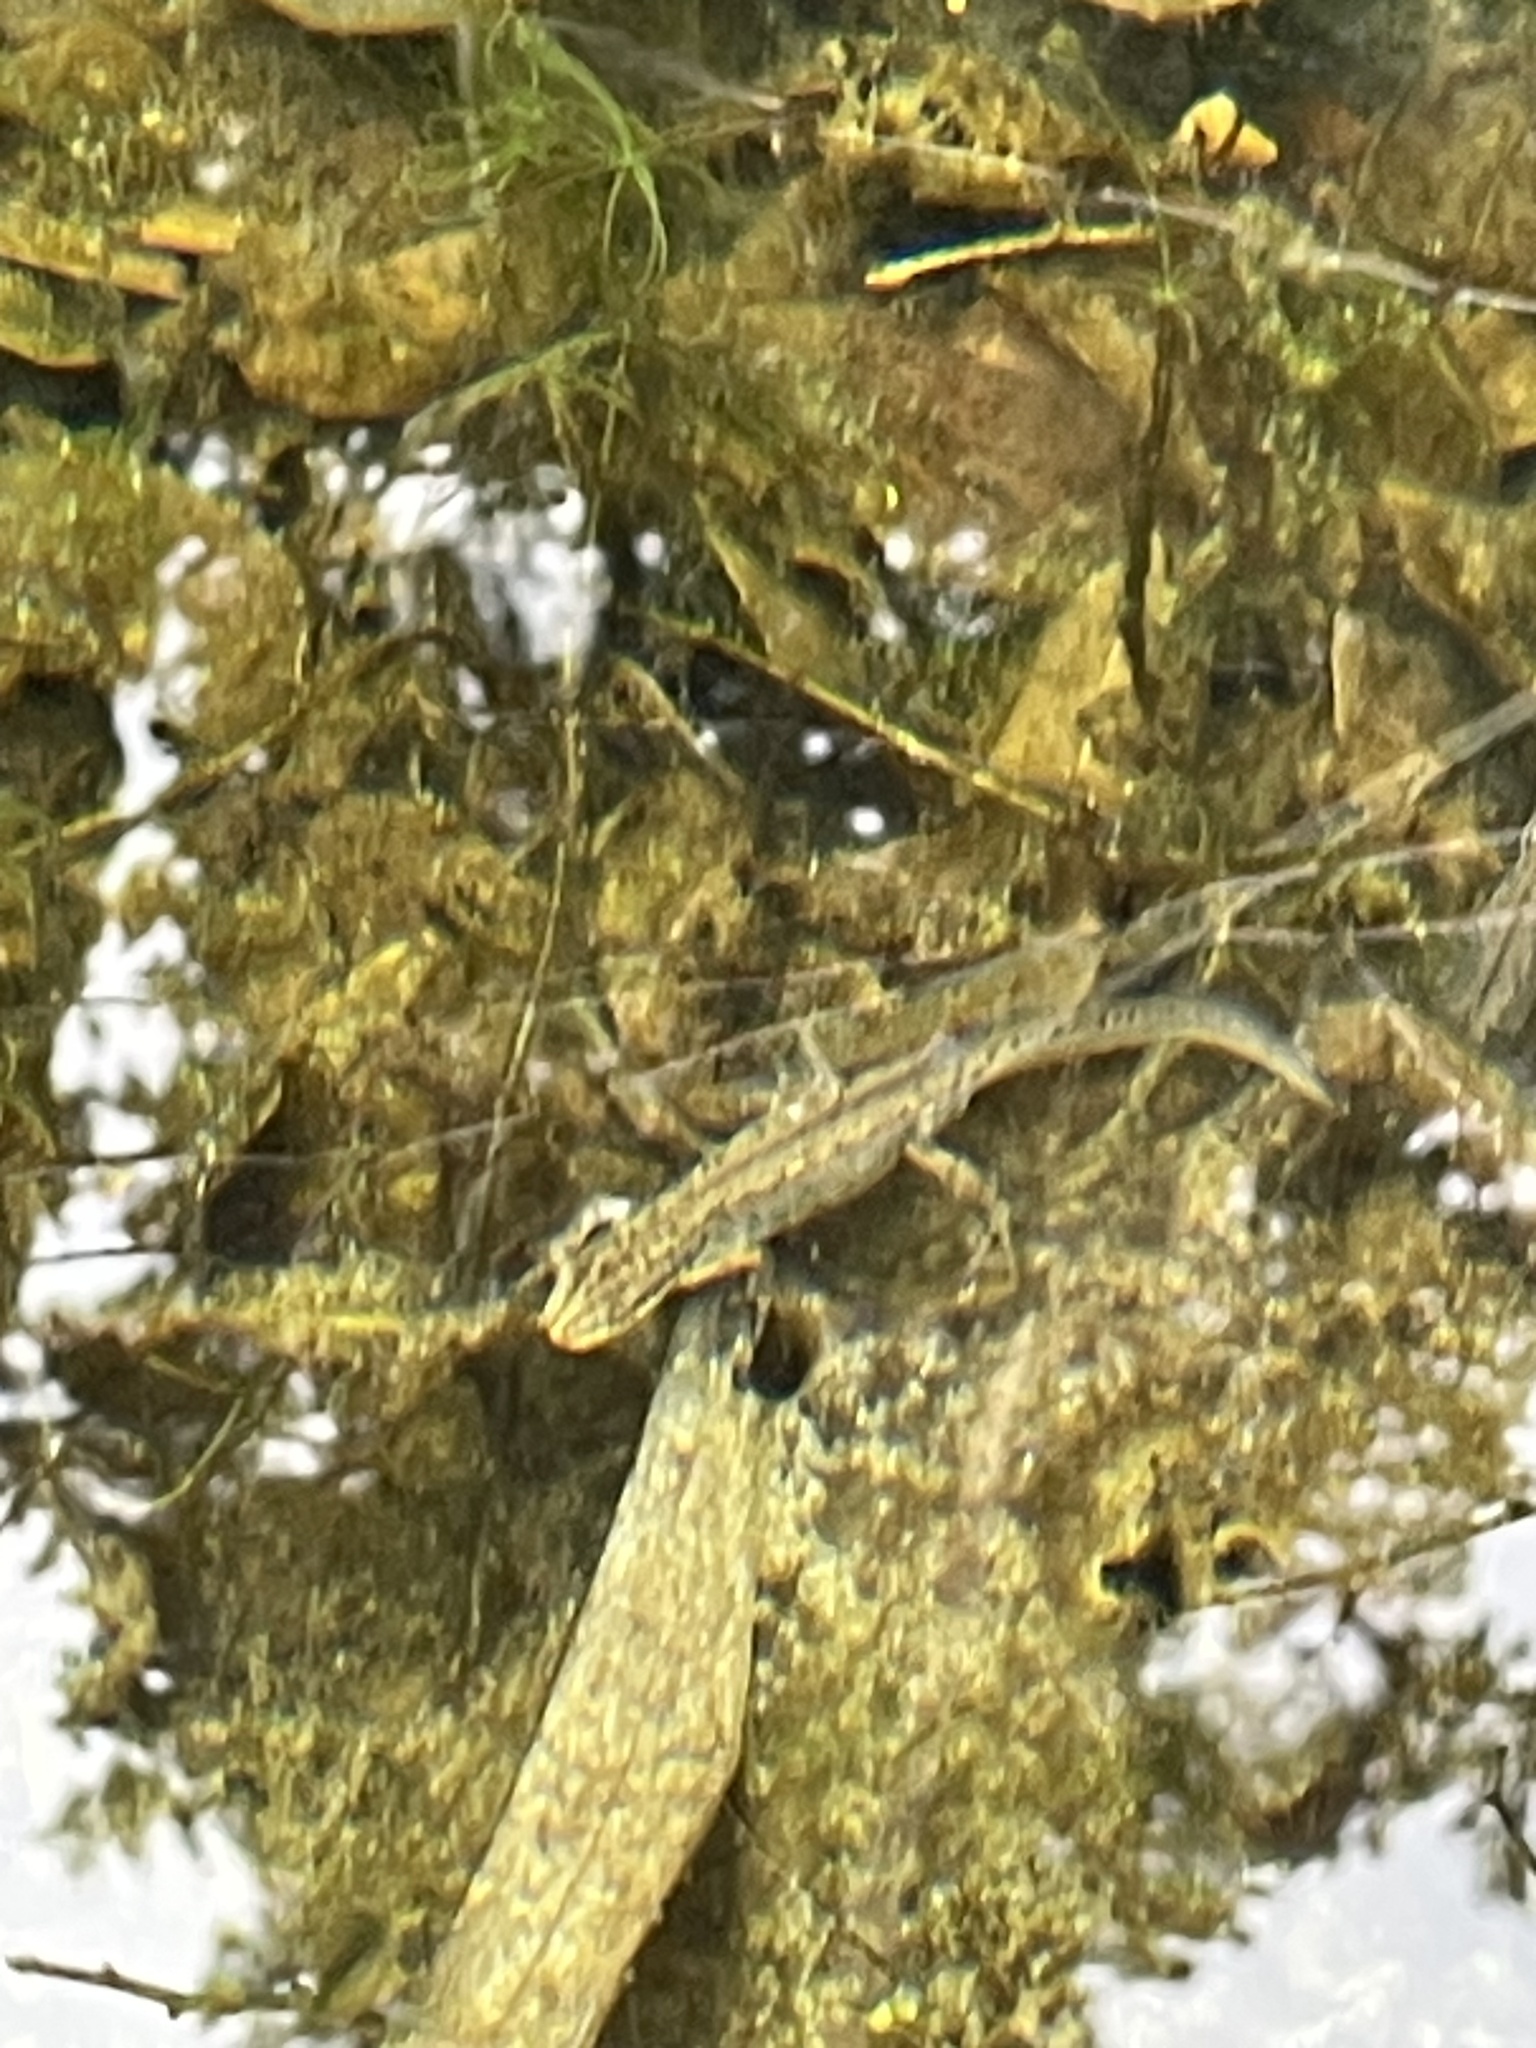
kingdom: Animalia
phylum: Chordata
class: Amphibia
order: Caudata
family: Salamandridae
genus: Lissotriton
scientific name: Lissotriton vulgaris
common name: Smooth newt
